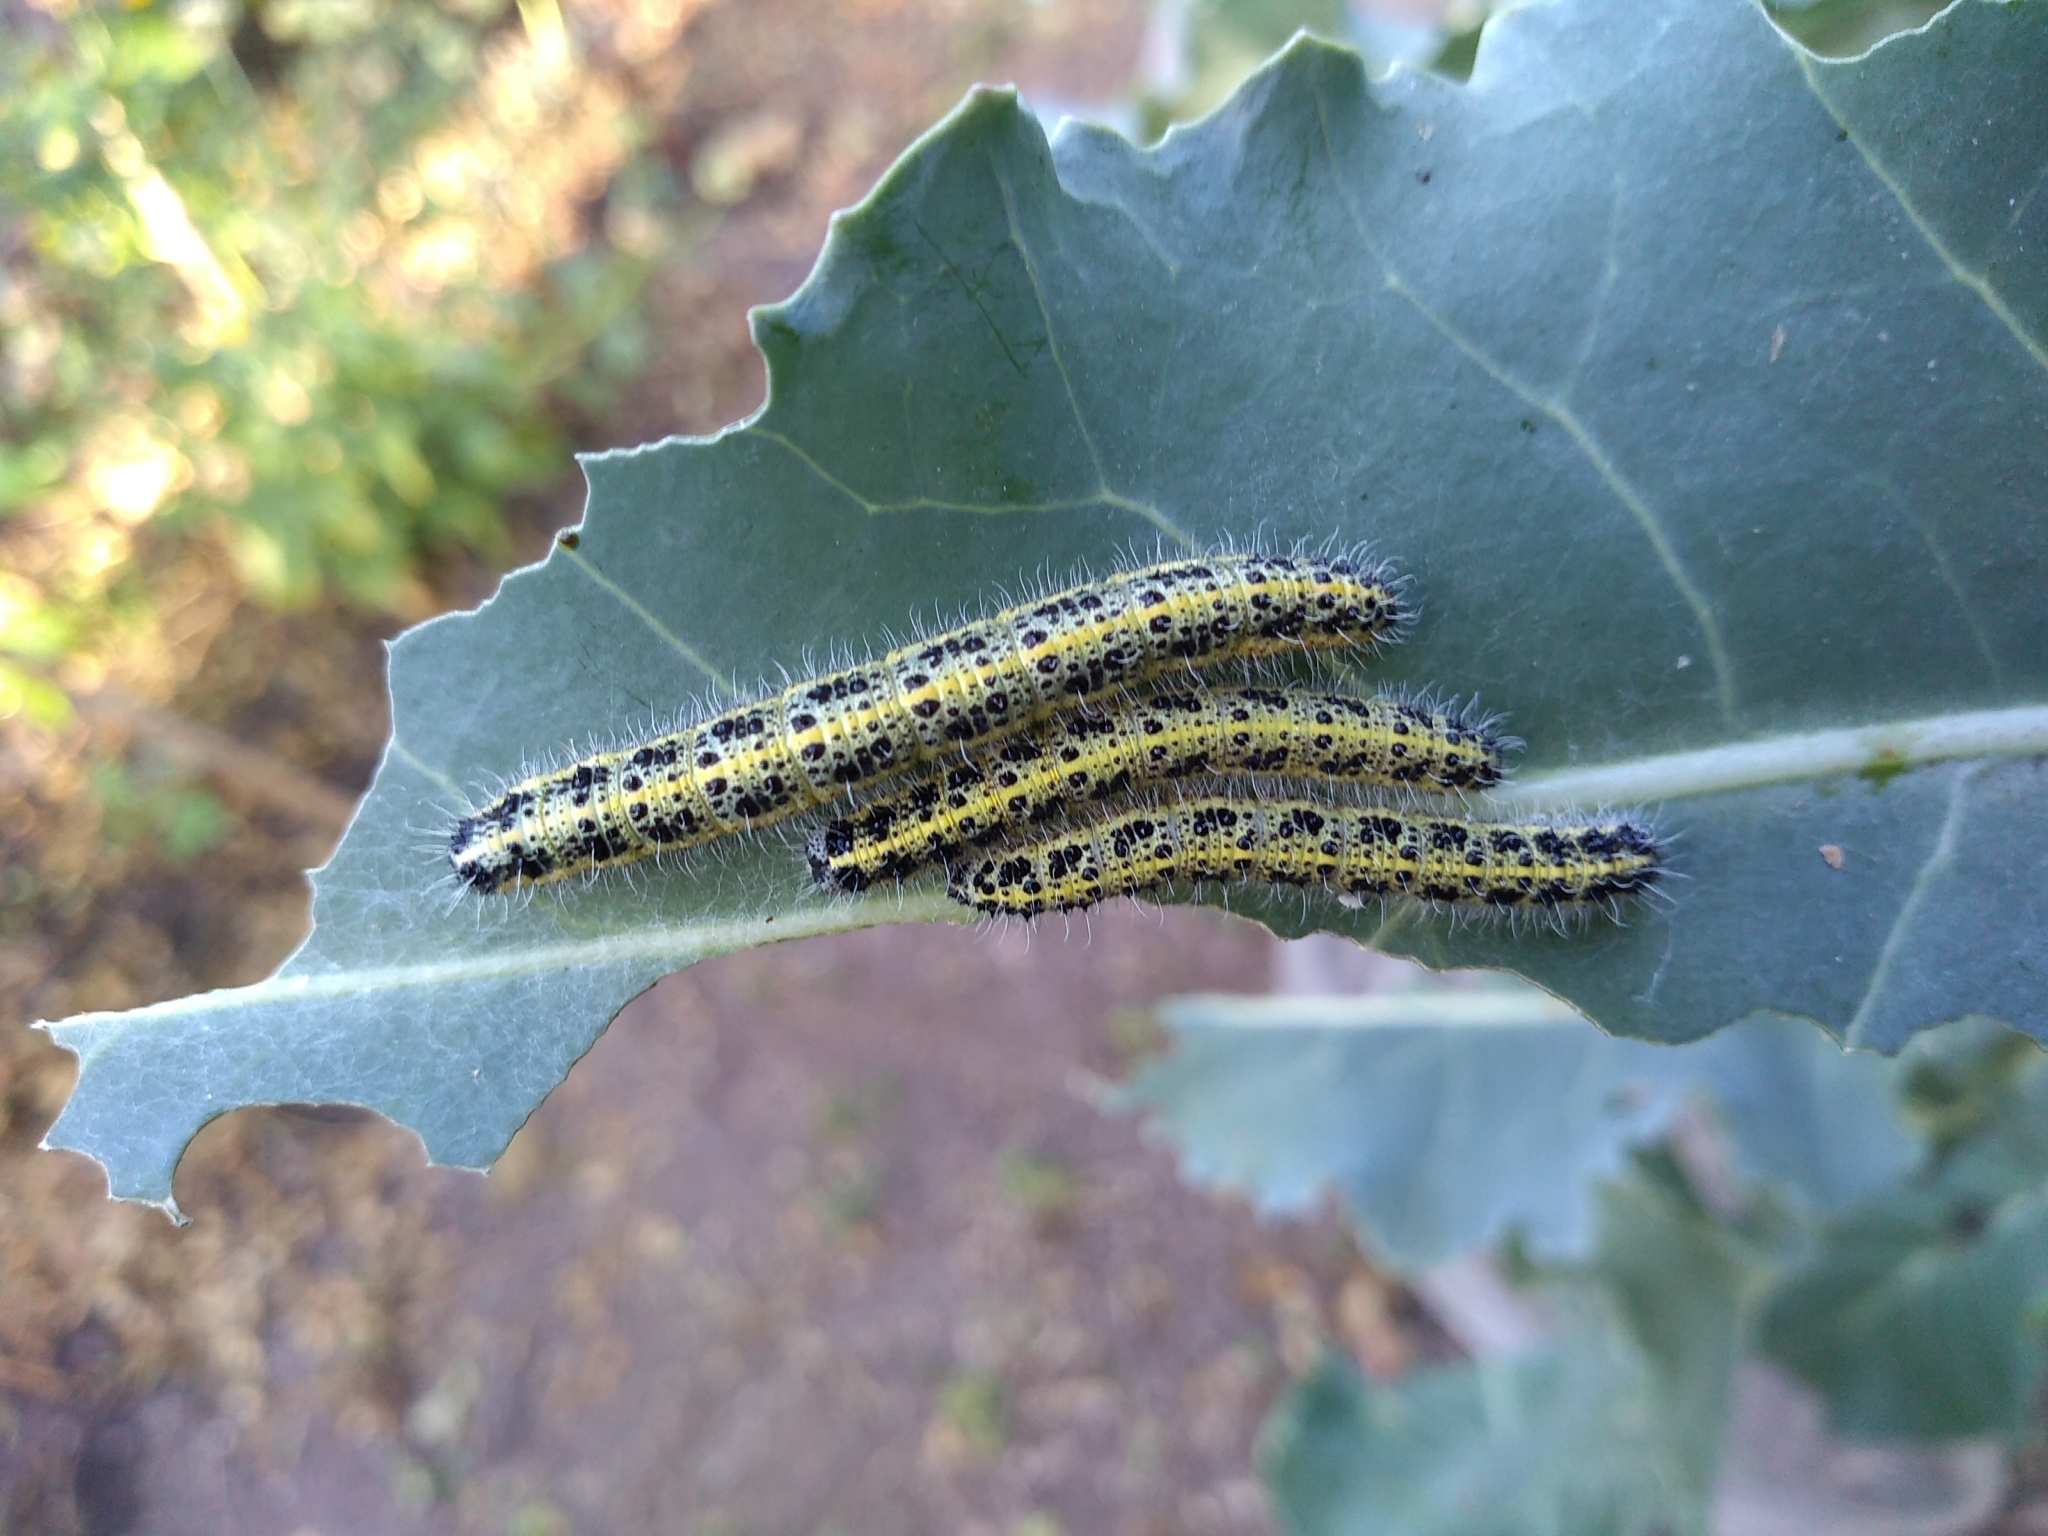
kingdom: Animalia
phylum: Arthropoda
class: Insecta
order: Lepidoptera
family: Pieridae
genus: Pieris
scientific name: Pieris brassicae
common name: Large white
